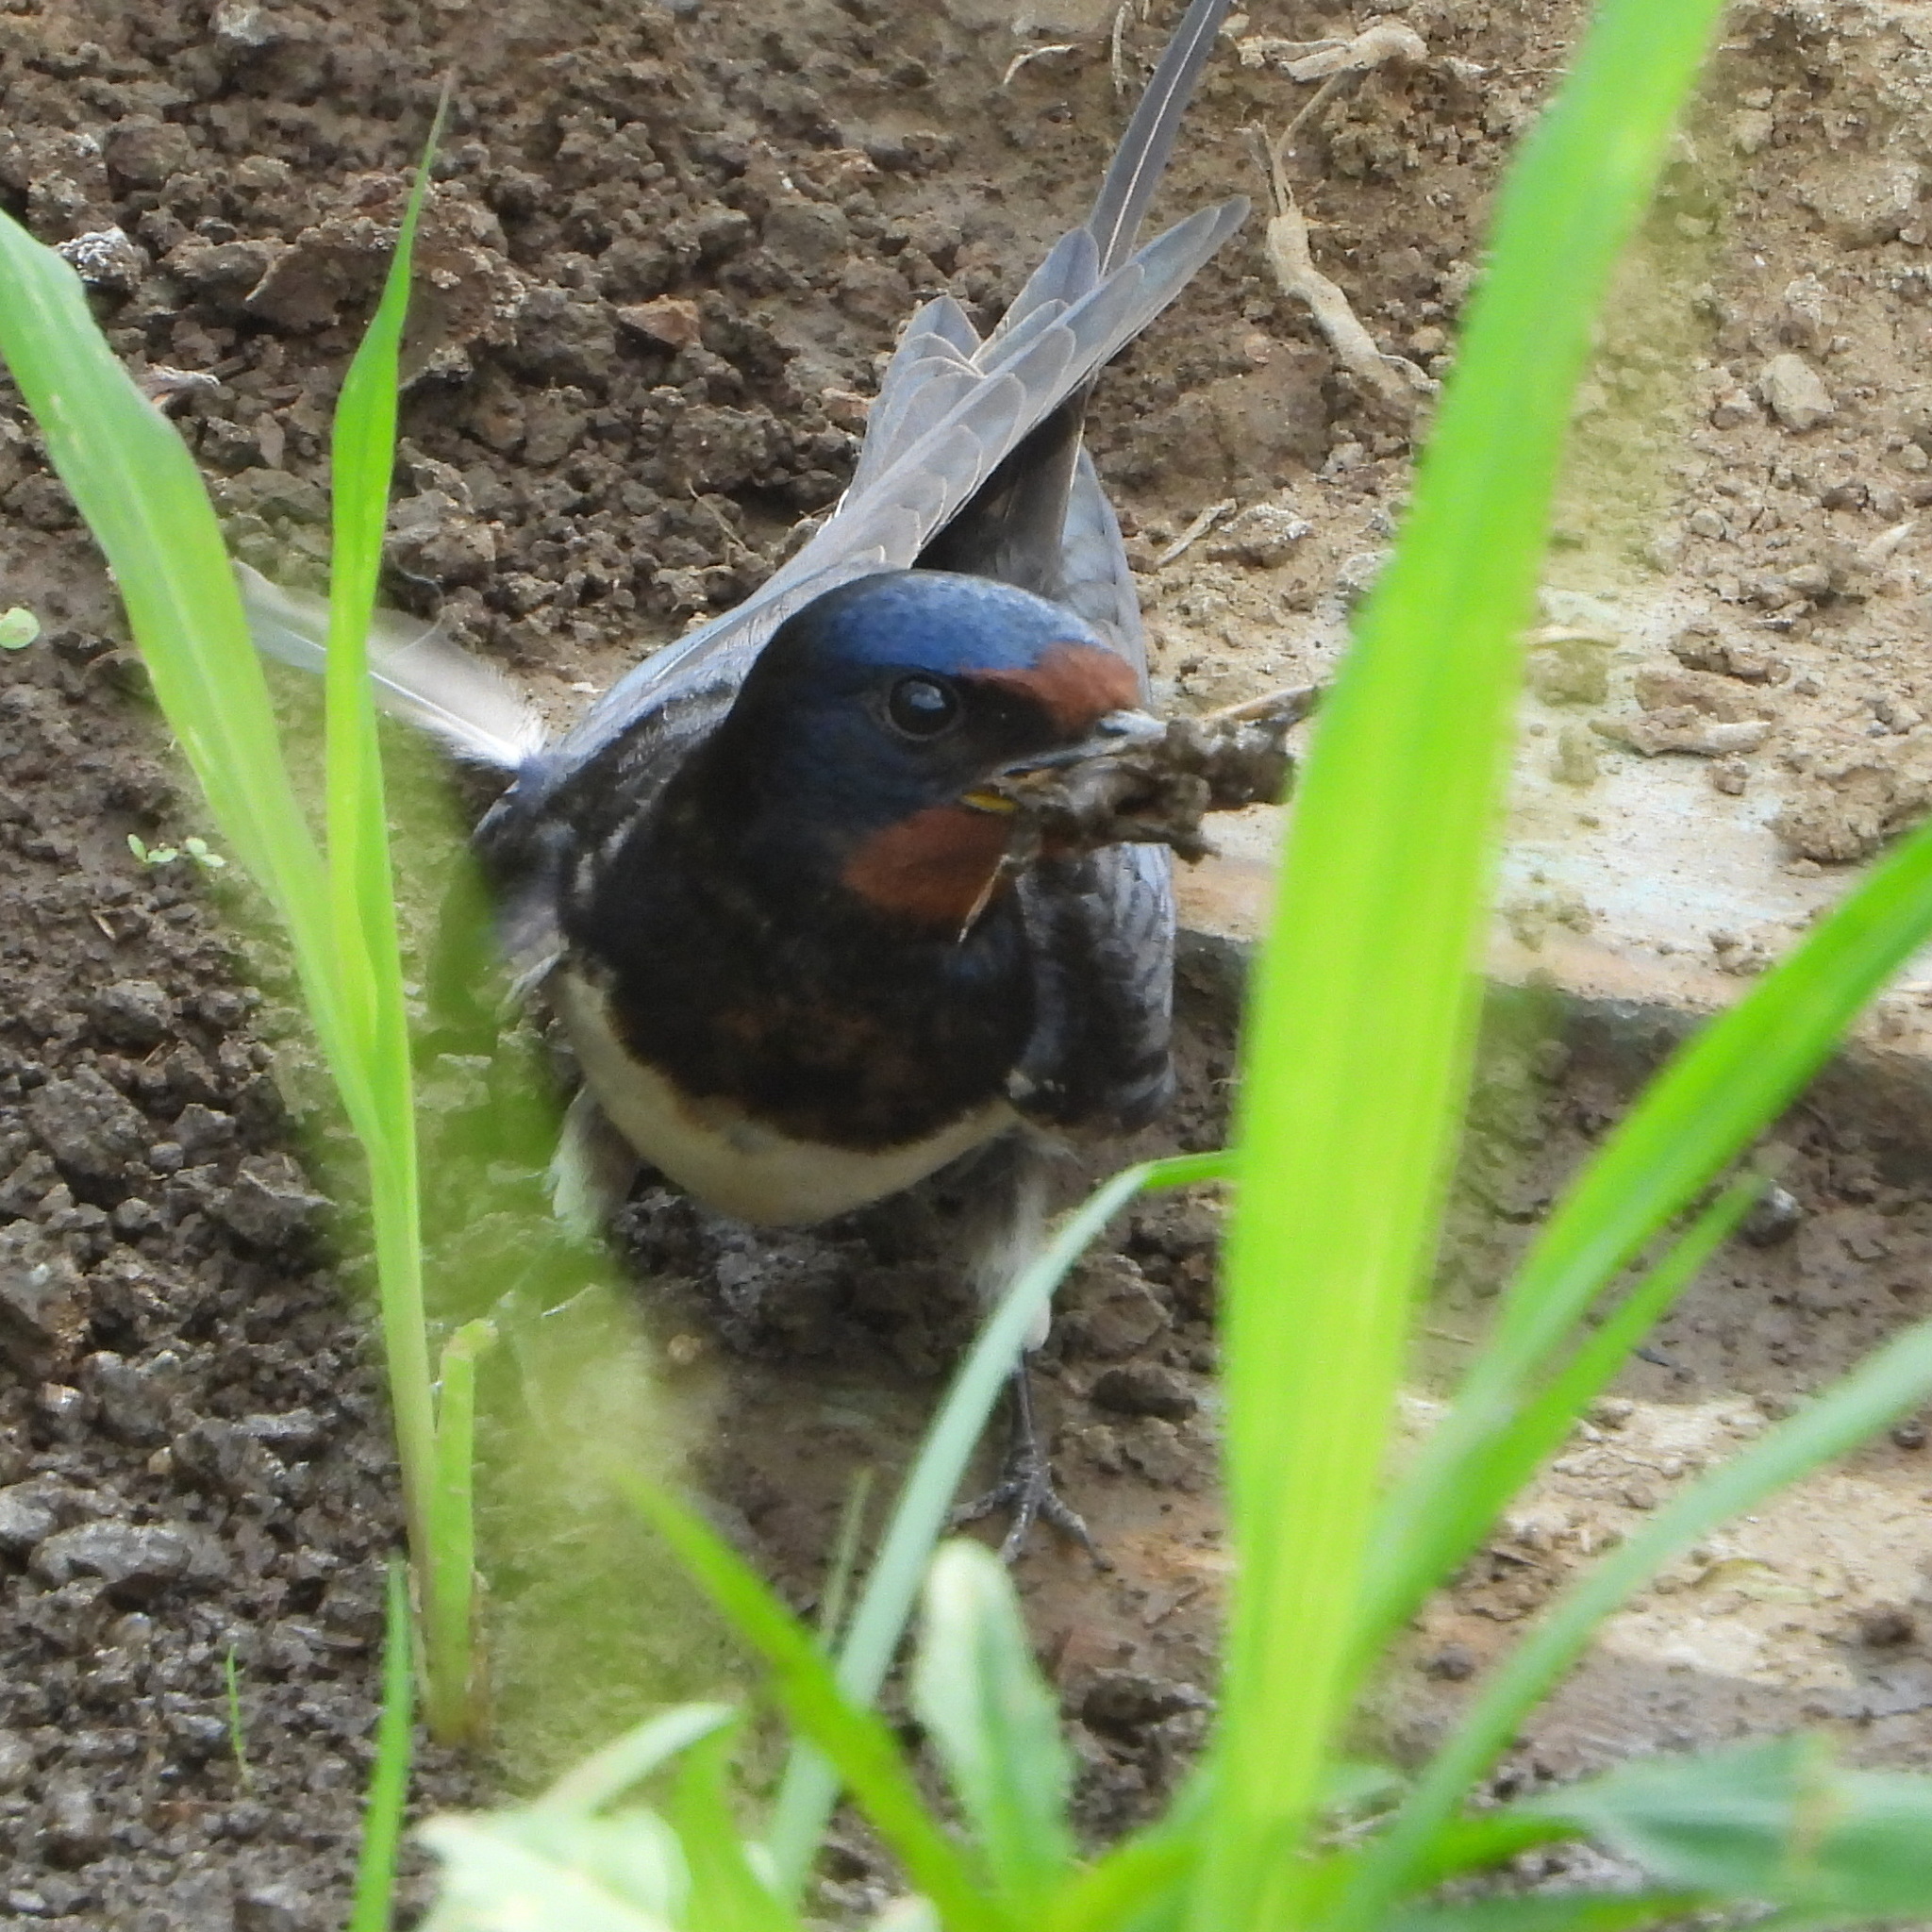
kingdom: Animalia
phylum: Chordata
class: Aves
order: Passeriformes
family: Hirundinidae
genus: Hirundo
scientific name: Hirundo rustica
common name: Barn swallow
